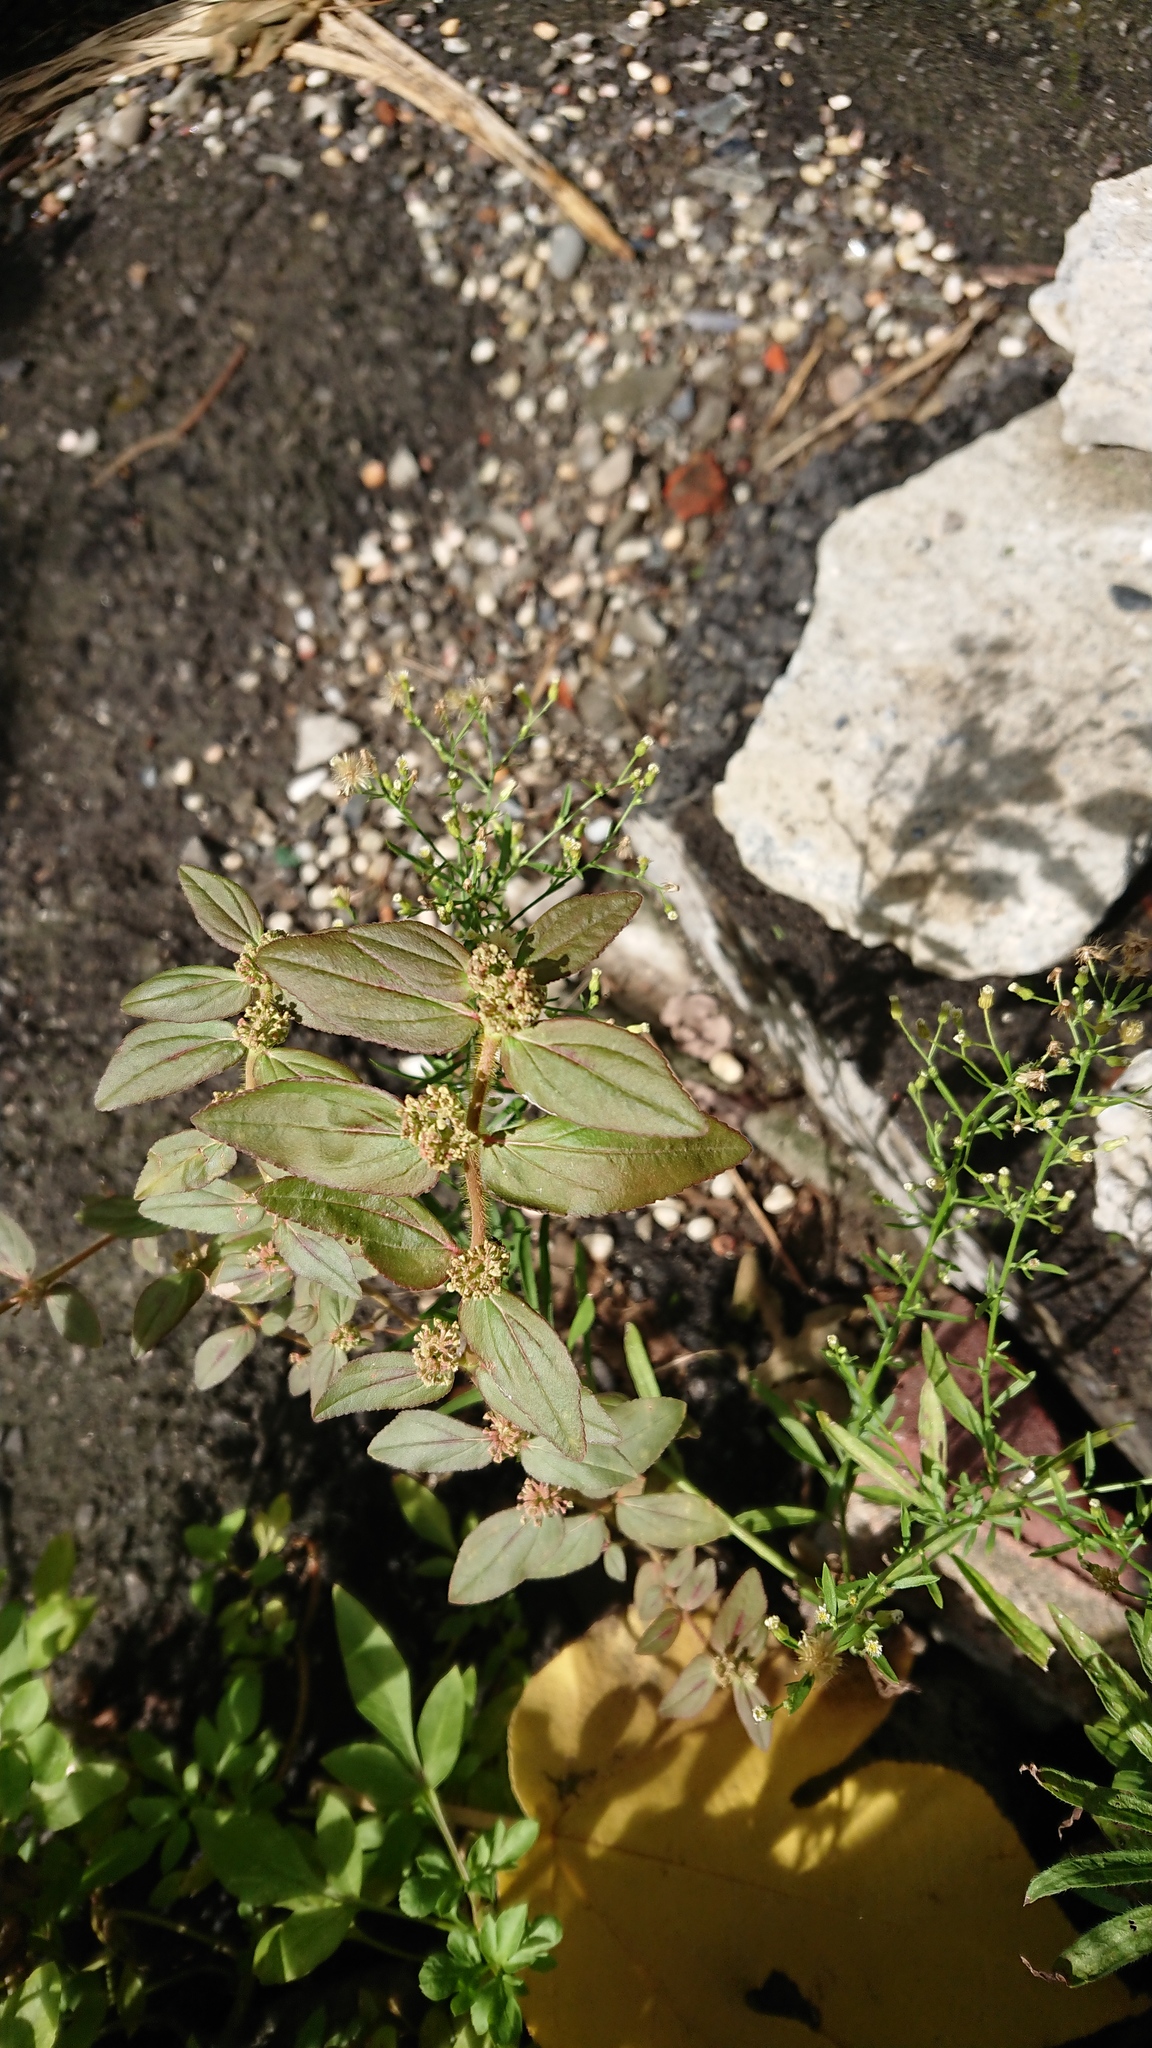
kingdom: Plantae
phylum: Tracheophyta
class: Magnoliopsida
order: Malpighiales
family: Euphorbiaceae
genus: Euphorbia
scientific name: Euphorbia hirta
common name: Pillpod sandmat
